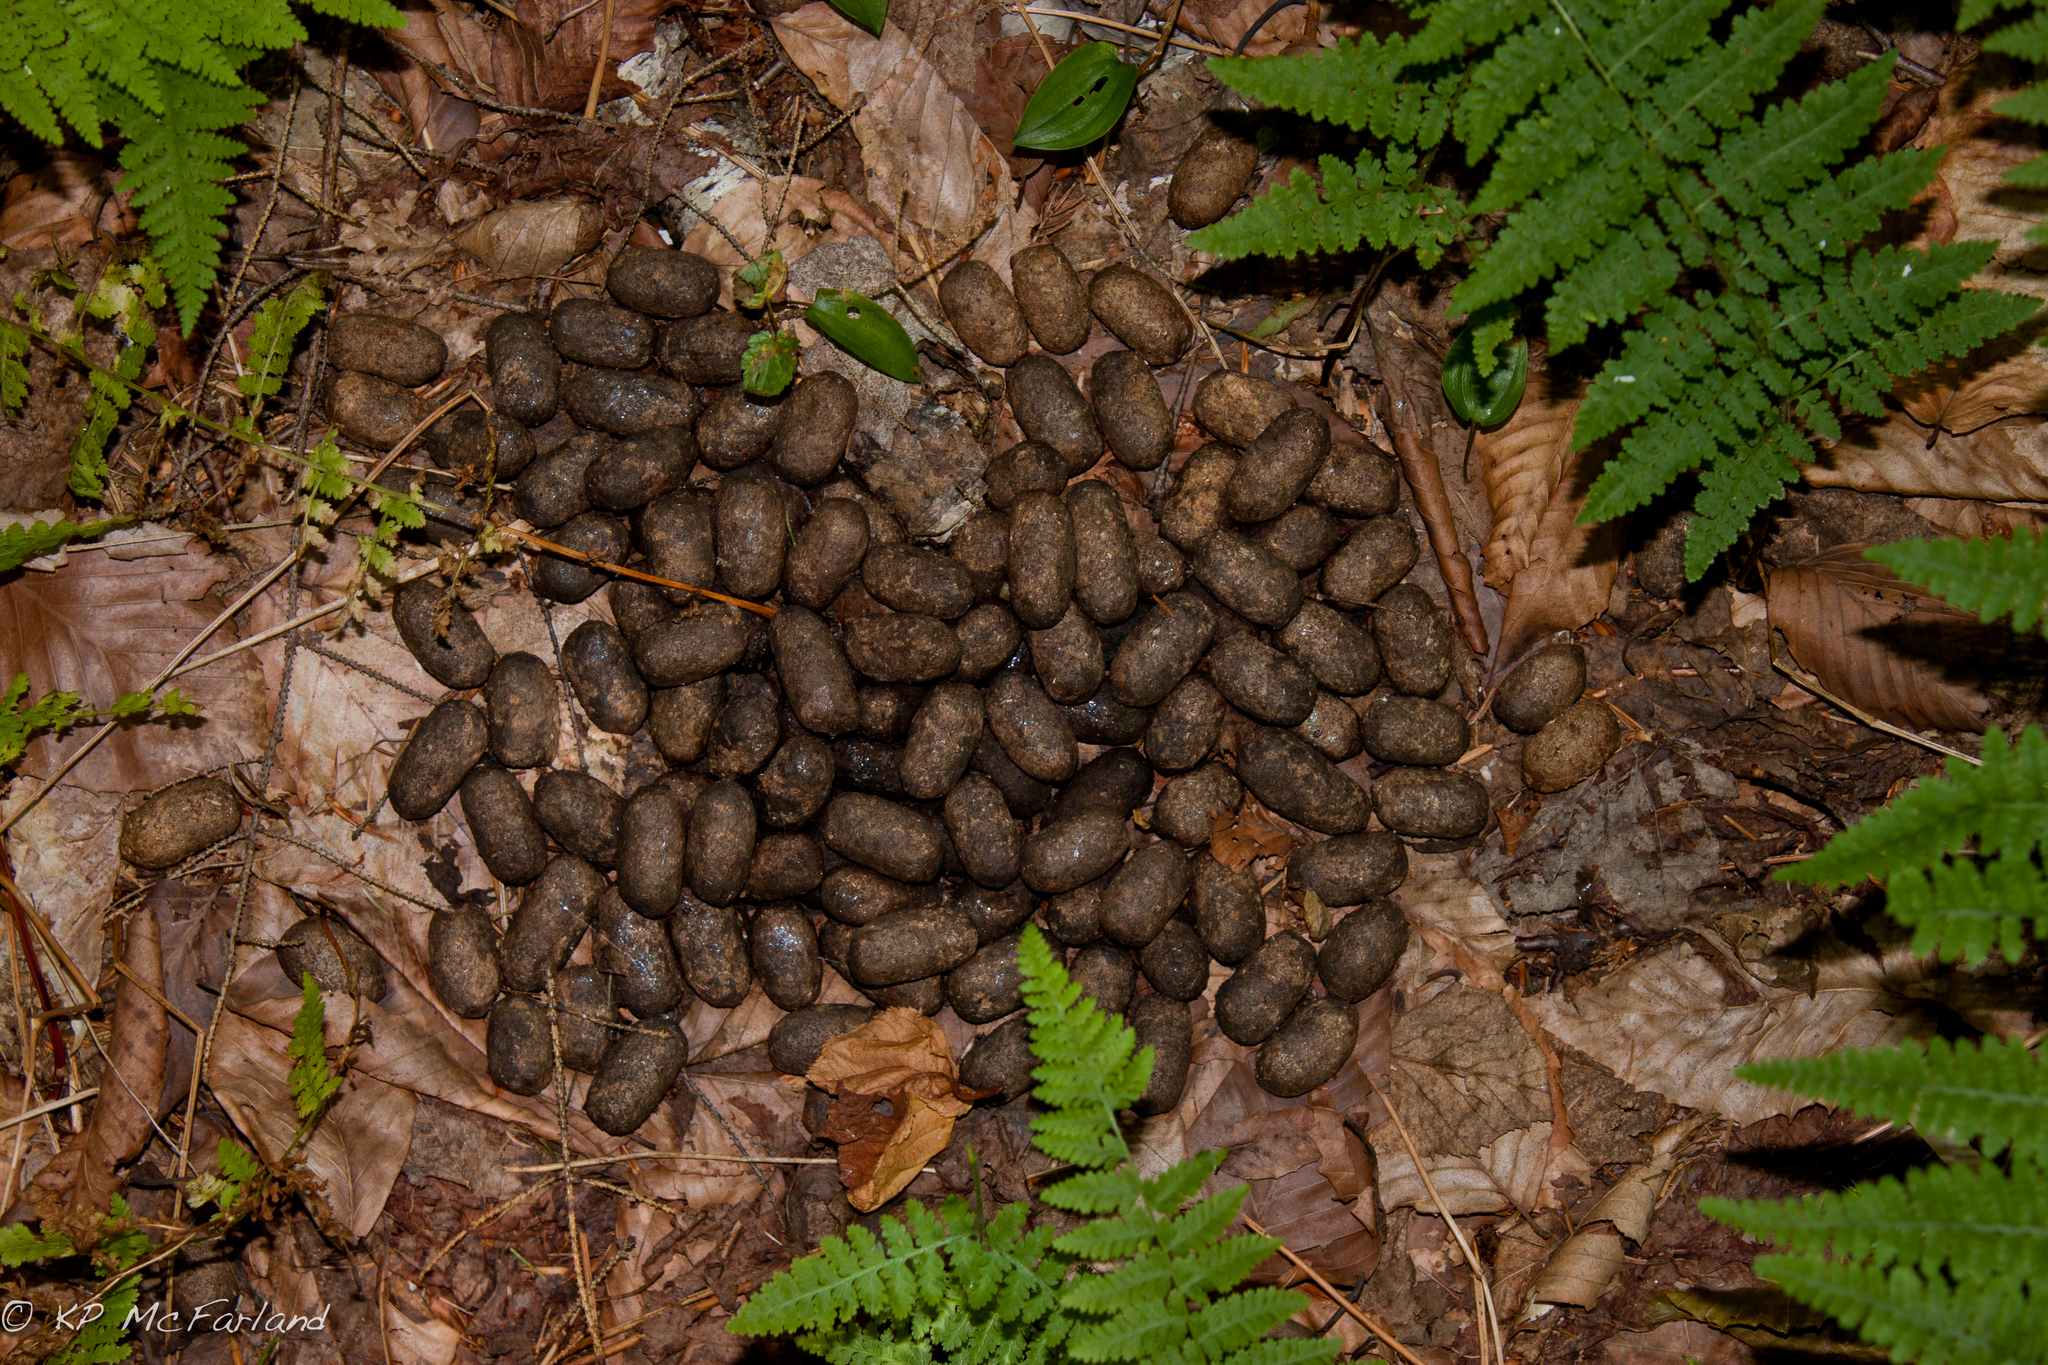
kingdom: Animalia
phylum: Chordata
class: Mammalia
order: Artiodactyla
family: Cervidae
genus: Alces
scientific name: Alces alces
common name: Moose
